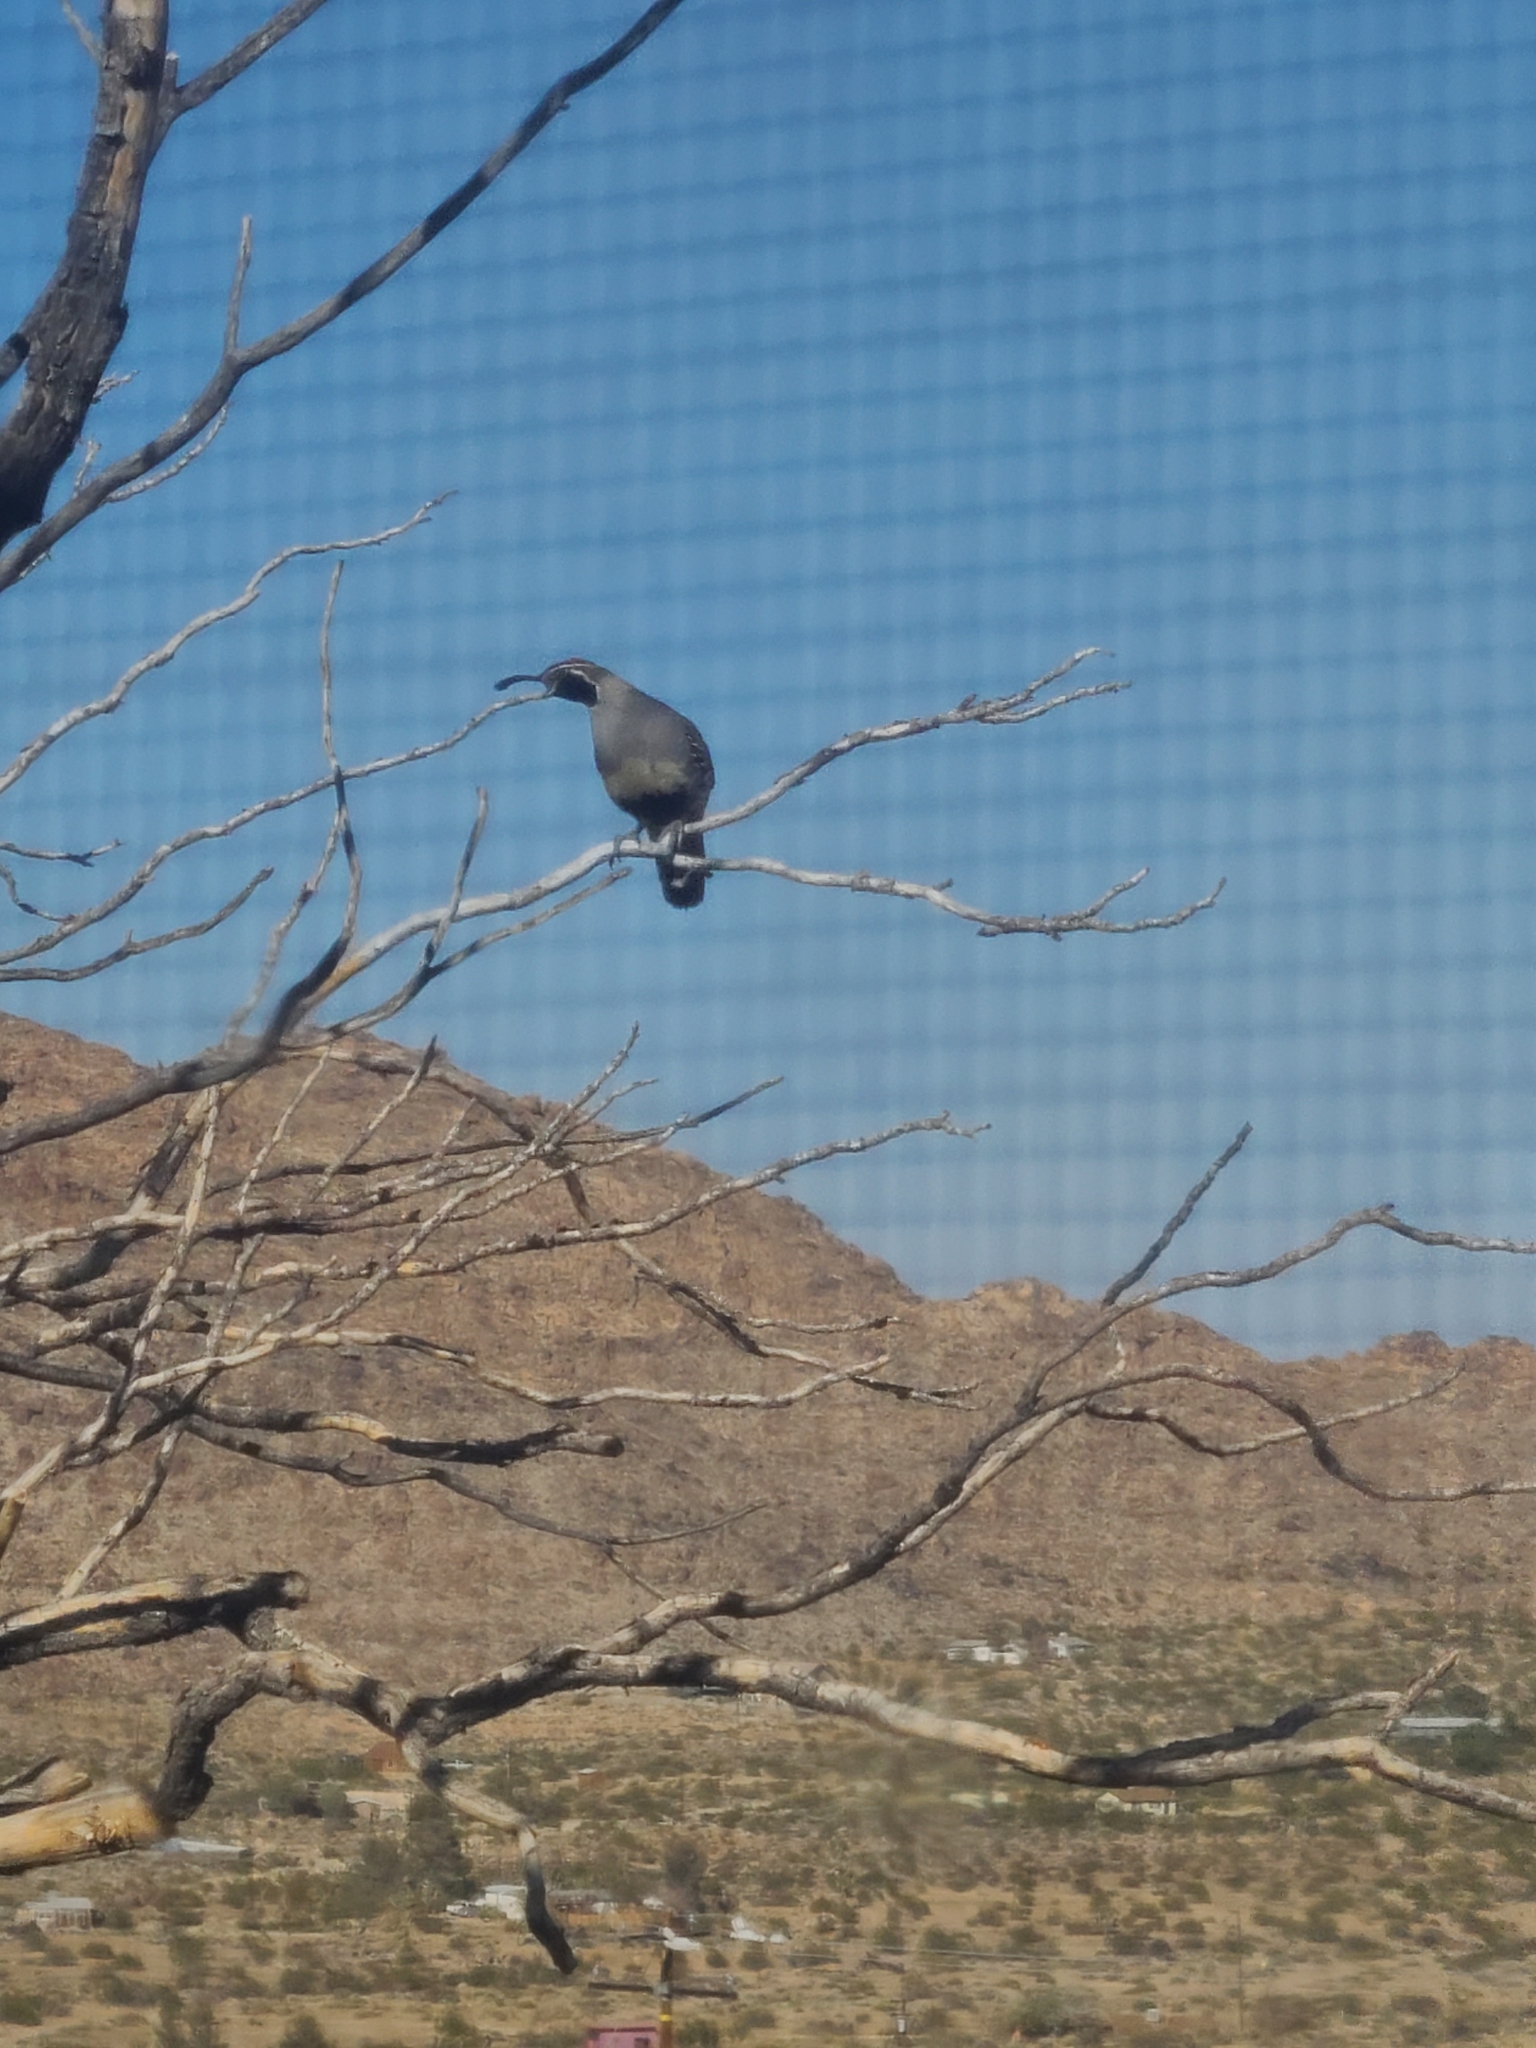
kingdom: Animalia
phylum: Chordata
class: Aves
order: Galliformes
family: Odontophoridae
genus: Callipepla
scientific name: Callipepla gambelii
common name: Gambel's quail
